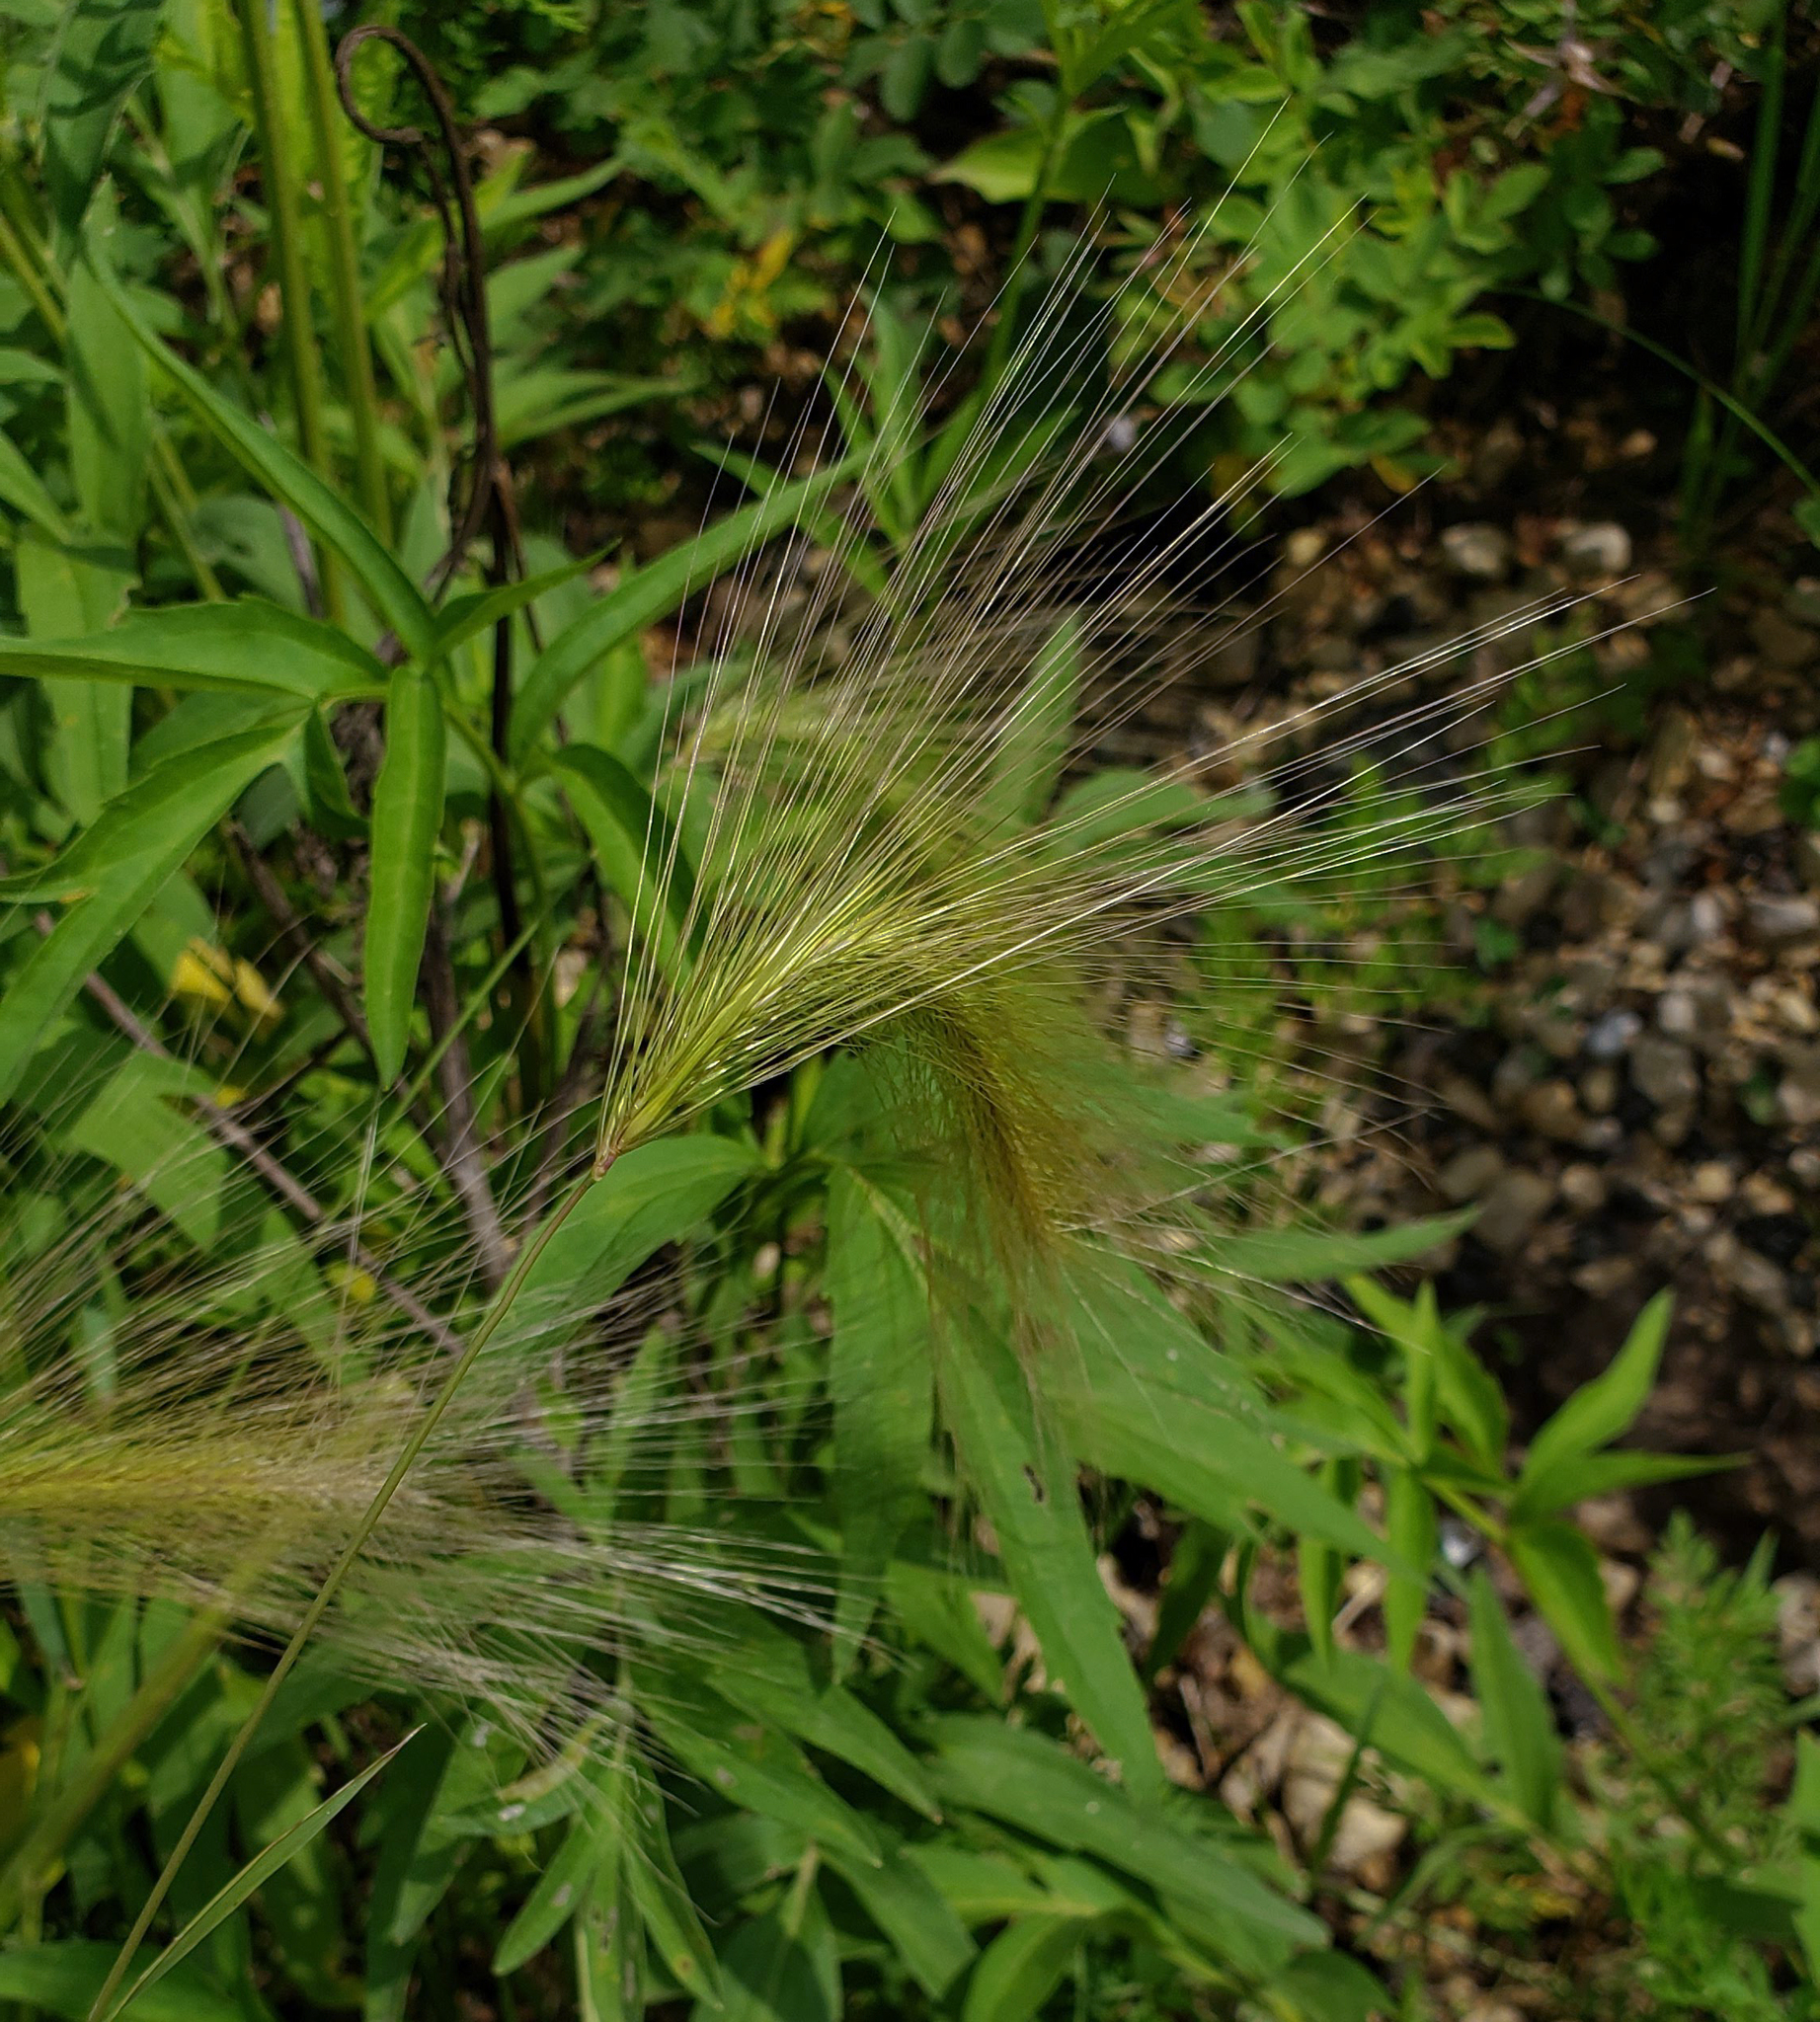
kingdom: Plantae
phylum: Tracheophyta
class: Liliopsida
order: Poales
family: Poaceae
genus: Hordeum
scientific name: Hordeum jubatum
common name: Foxtail barley
